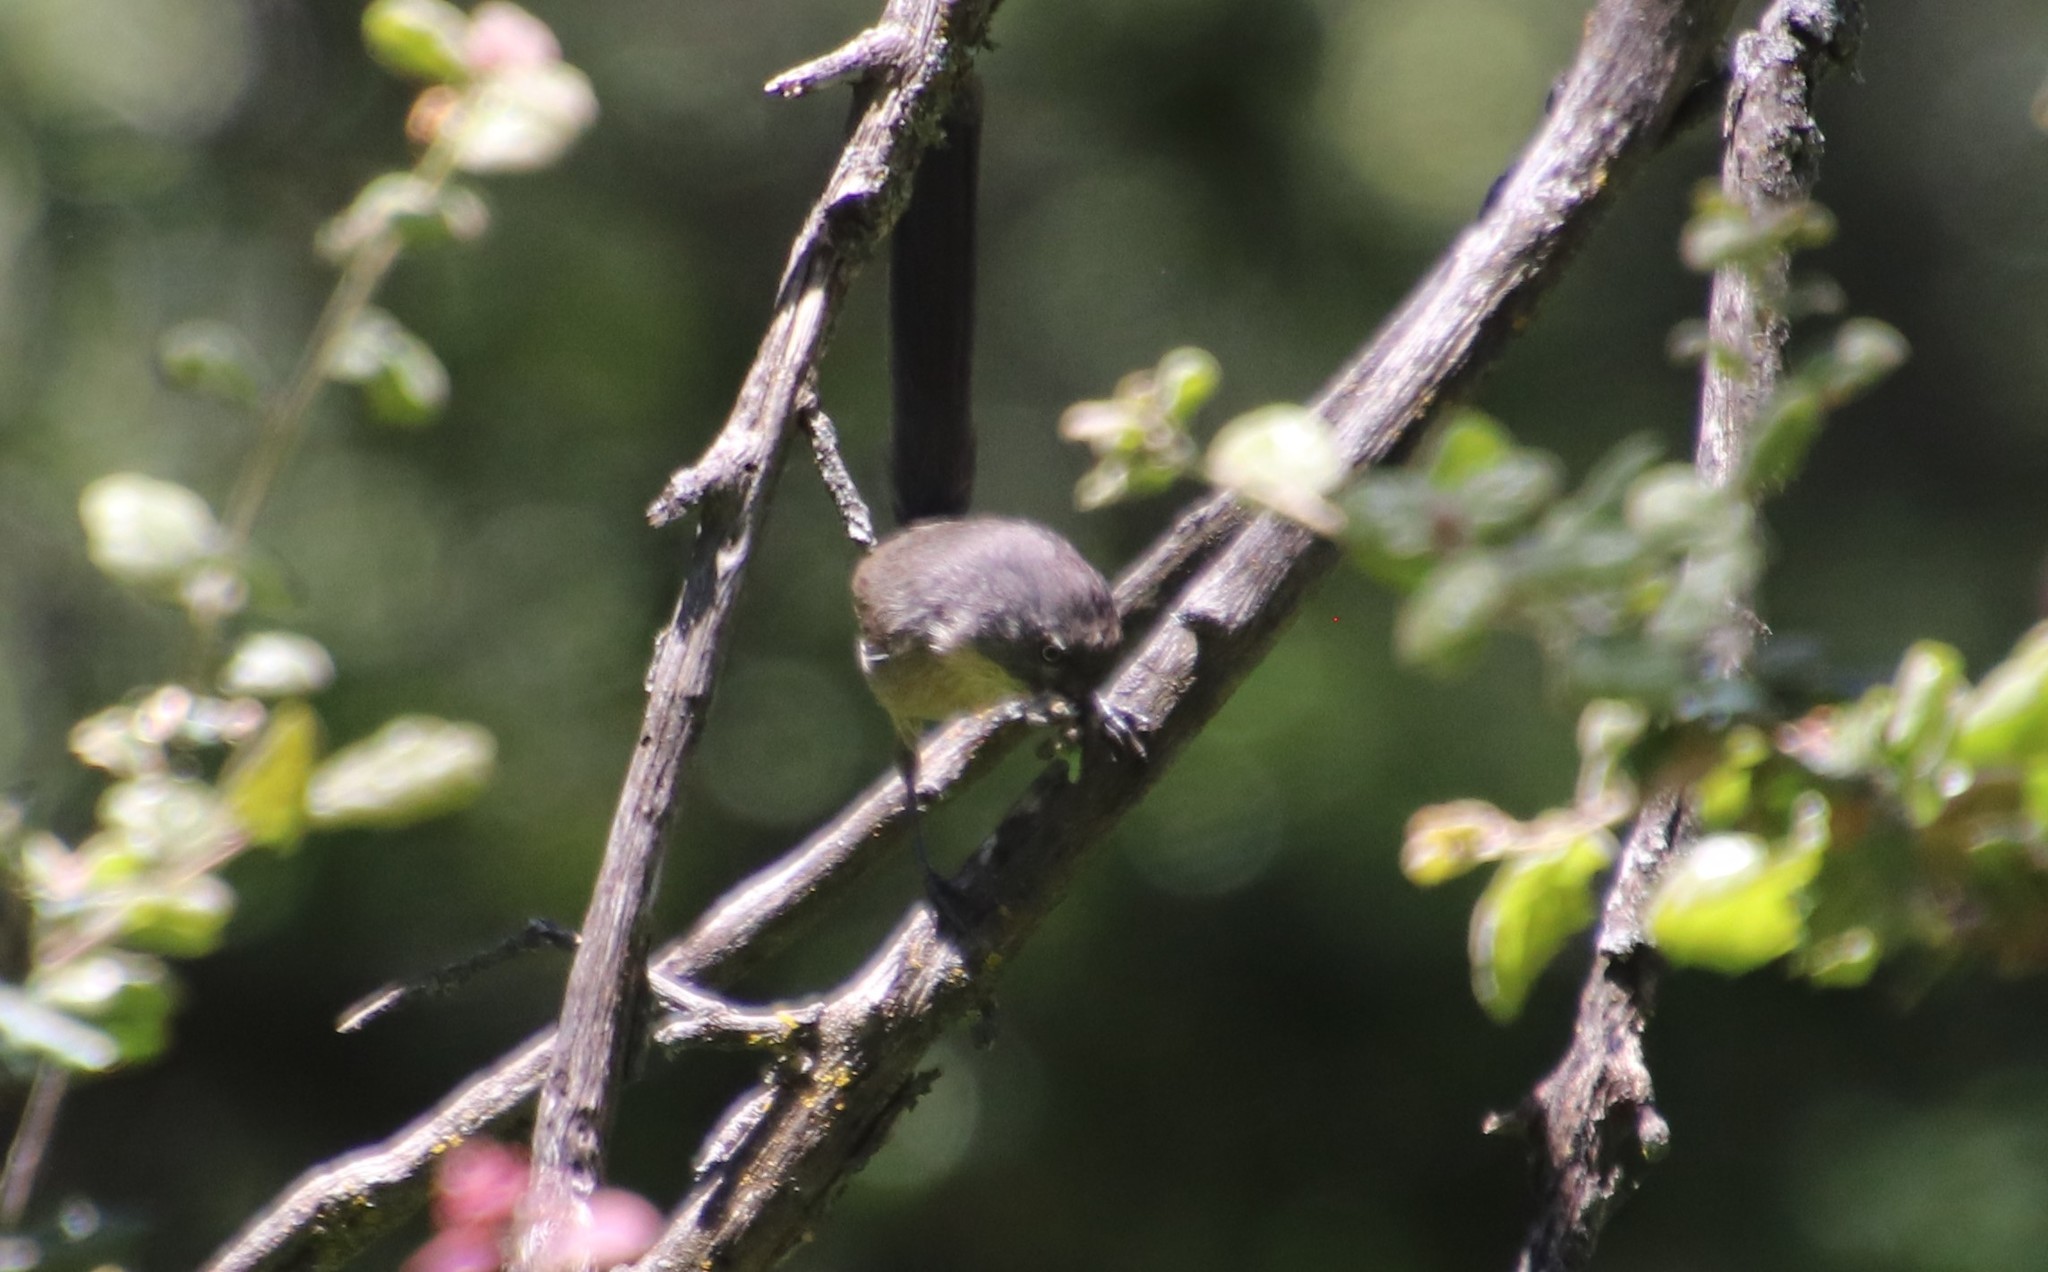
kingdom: Animalia
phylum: Chordata
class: Aves
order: Passeriformes
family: Sylviidae
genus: Chamaea
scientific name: Chamaea fasciata
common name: Wrentit
